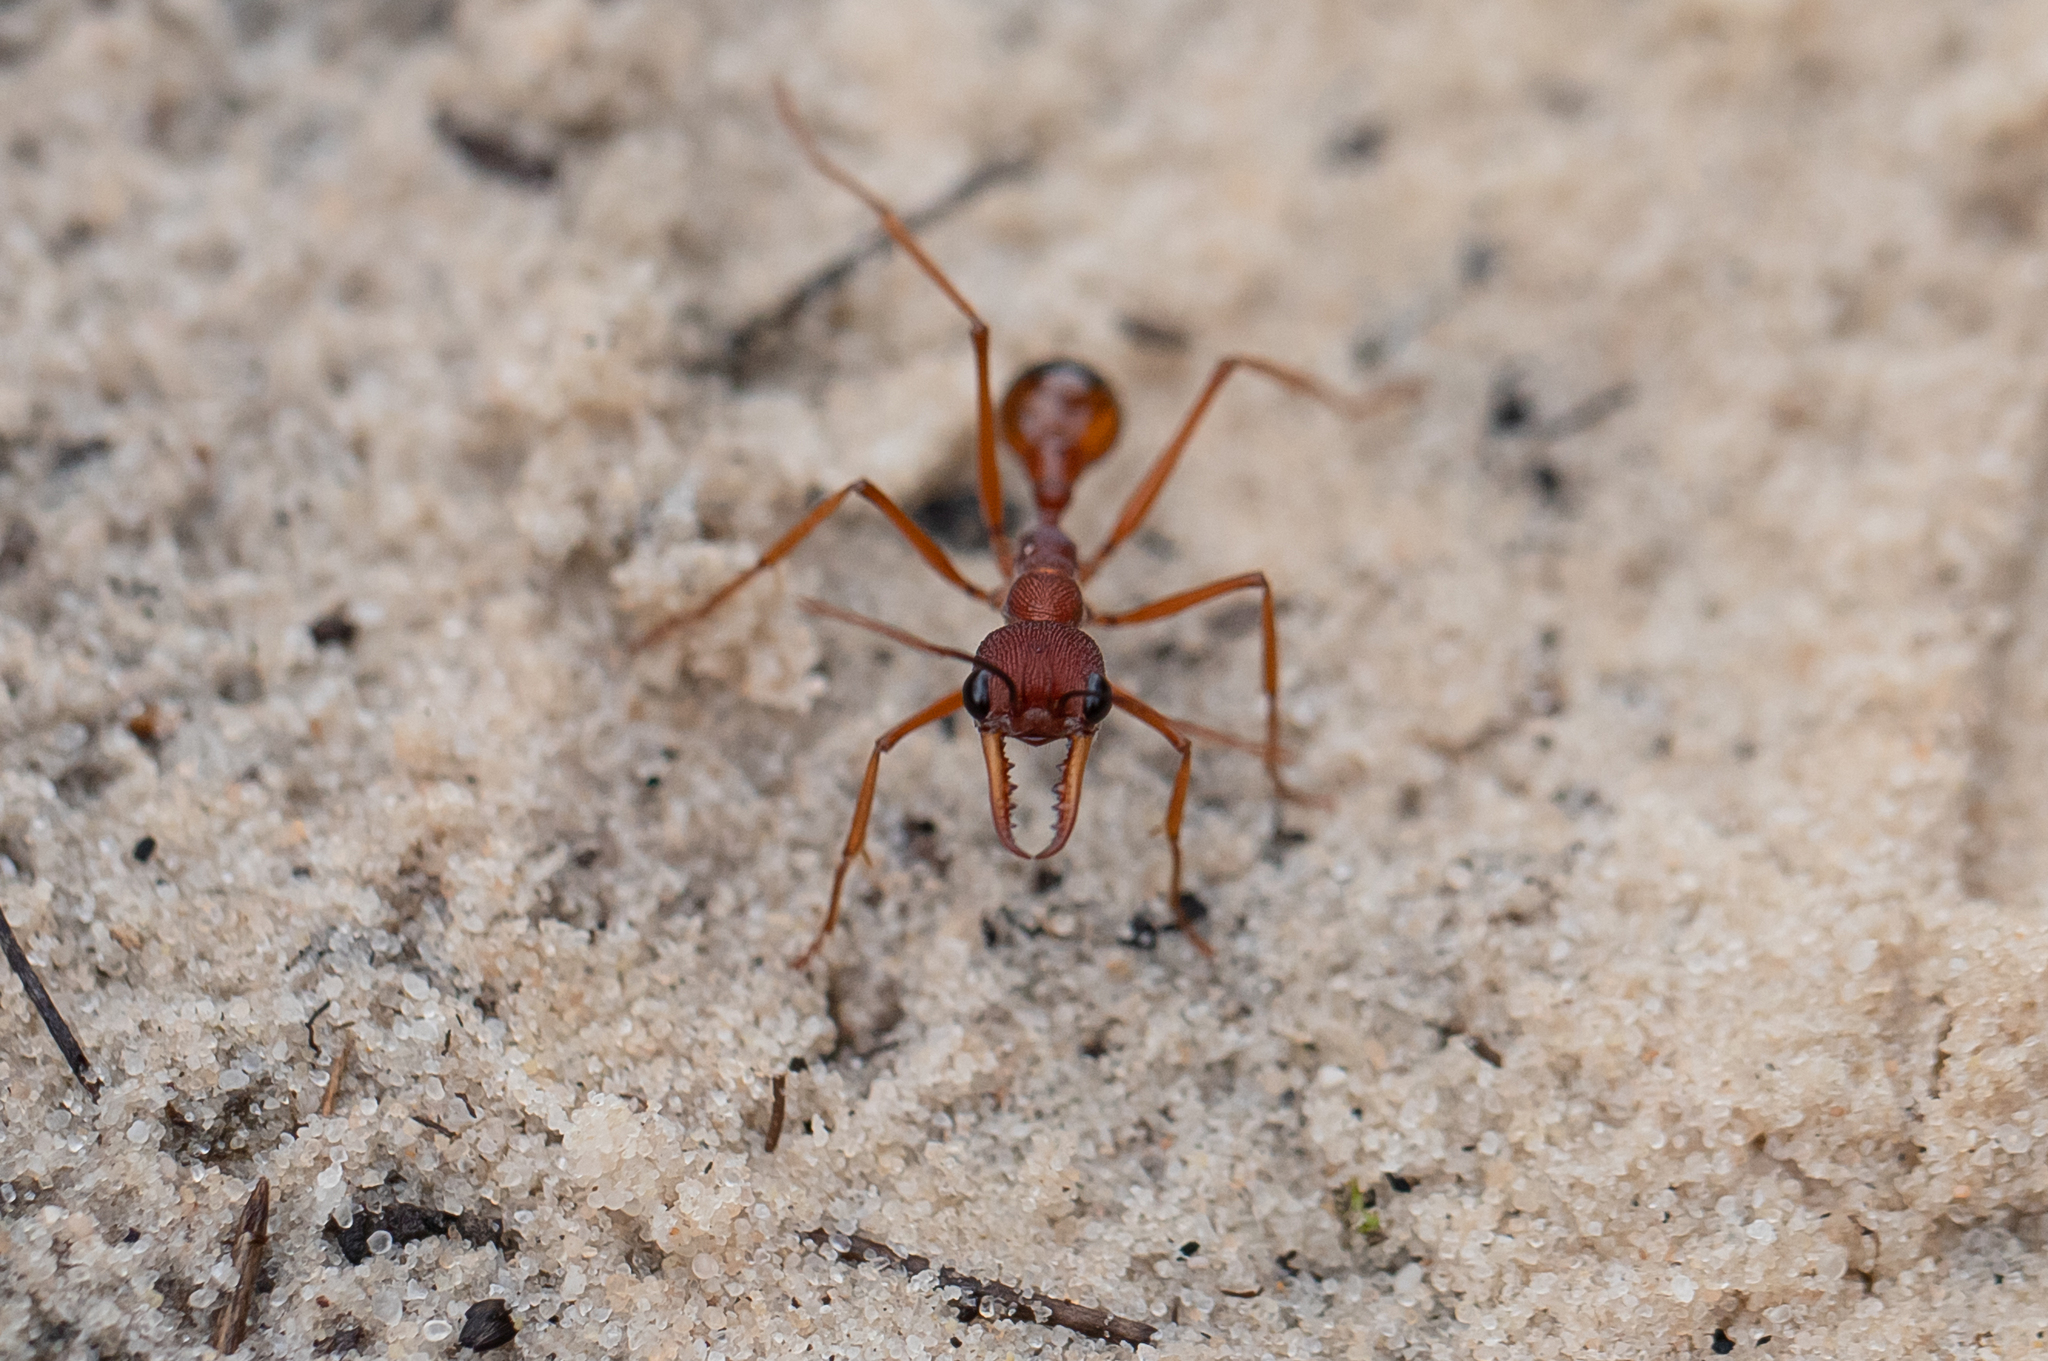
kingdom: Animalia
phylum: Arthropoda
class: Insecta
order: Hymenoptera
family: Formicidae
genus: Myrmecia
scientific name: Myrmecia nigriscapa
